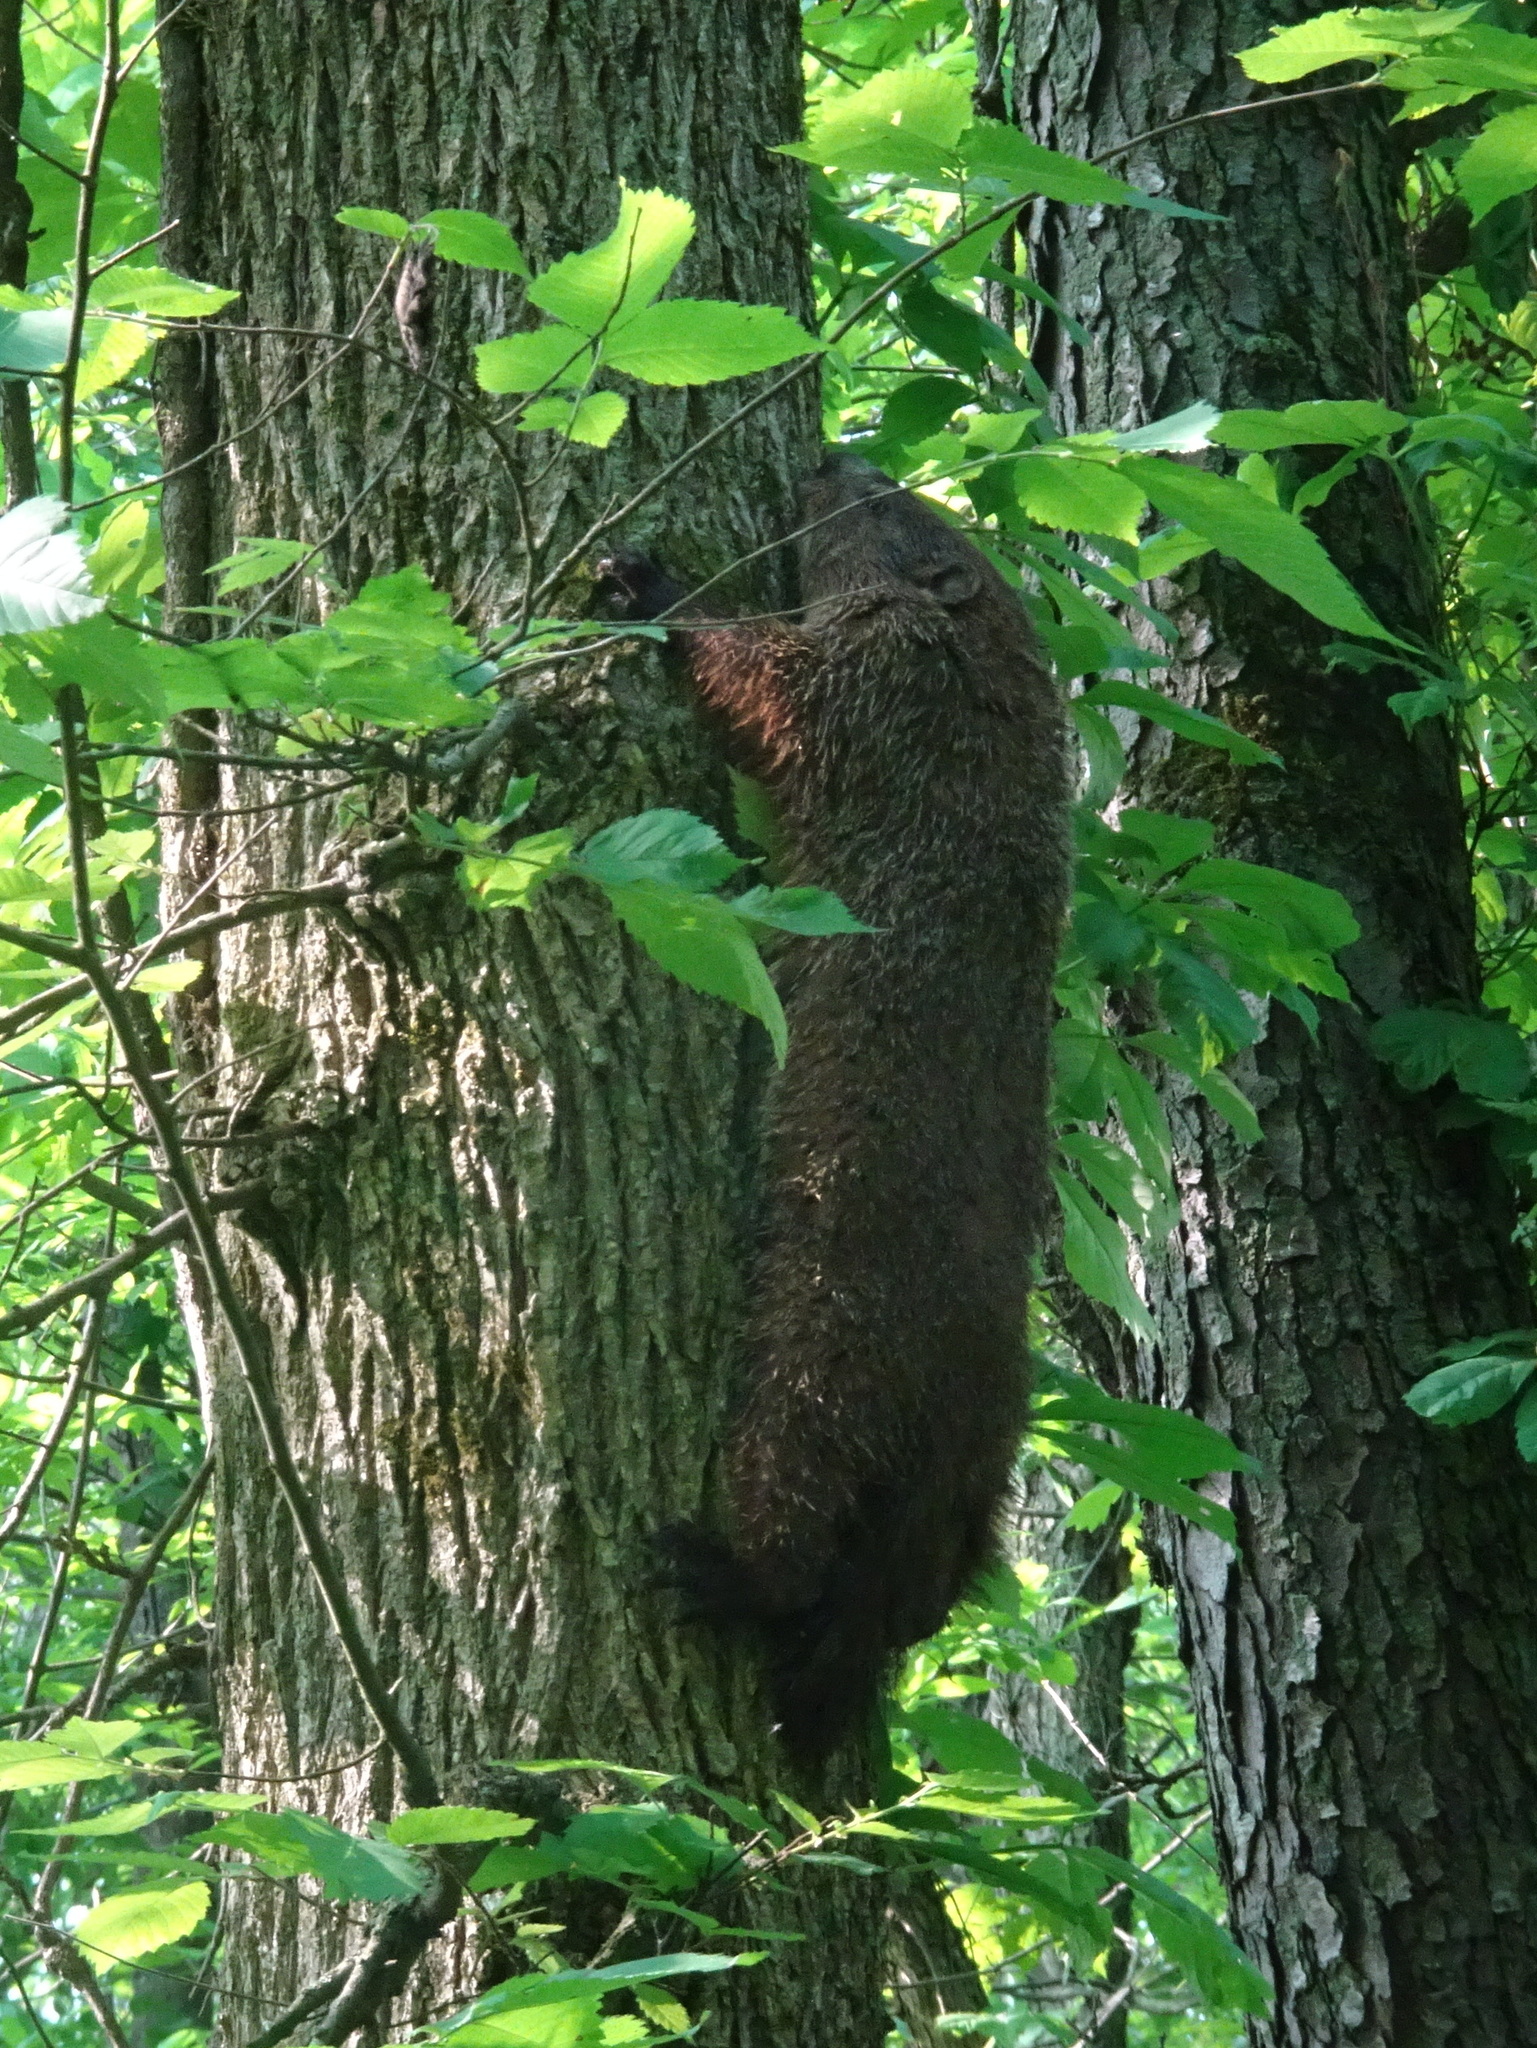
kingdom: Animalia
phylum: Chordata
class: Mammalia
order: Rodentia
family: Sciuridae
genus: Marmota
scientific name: Marmota monax
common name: Groundhog
